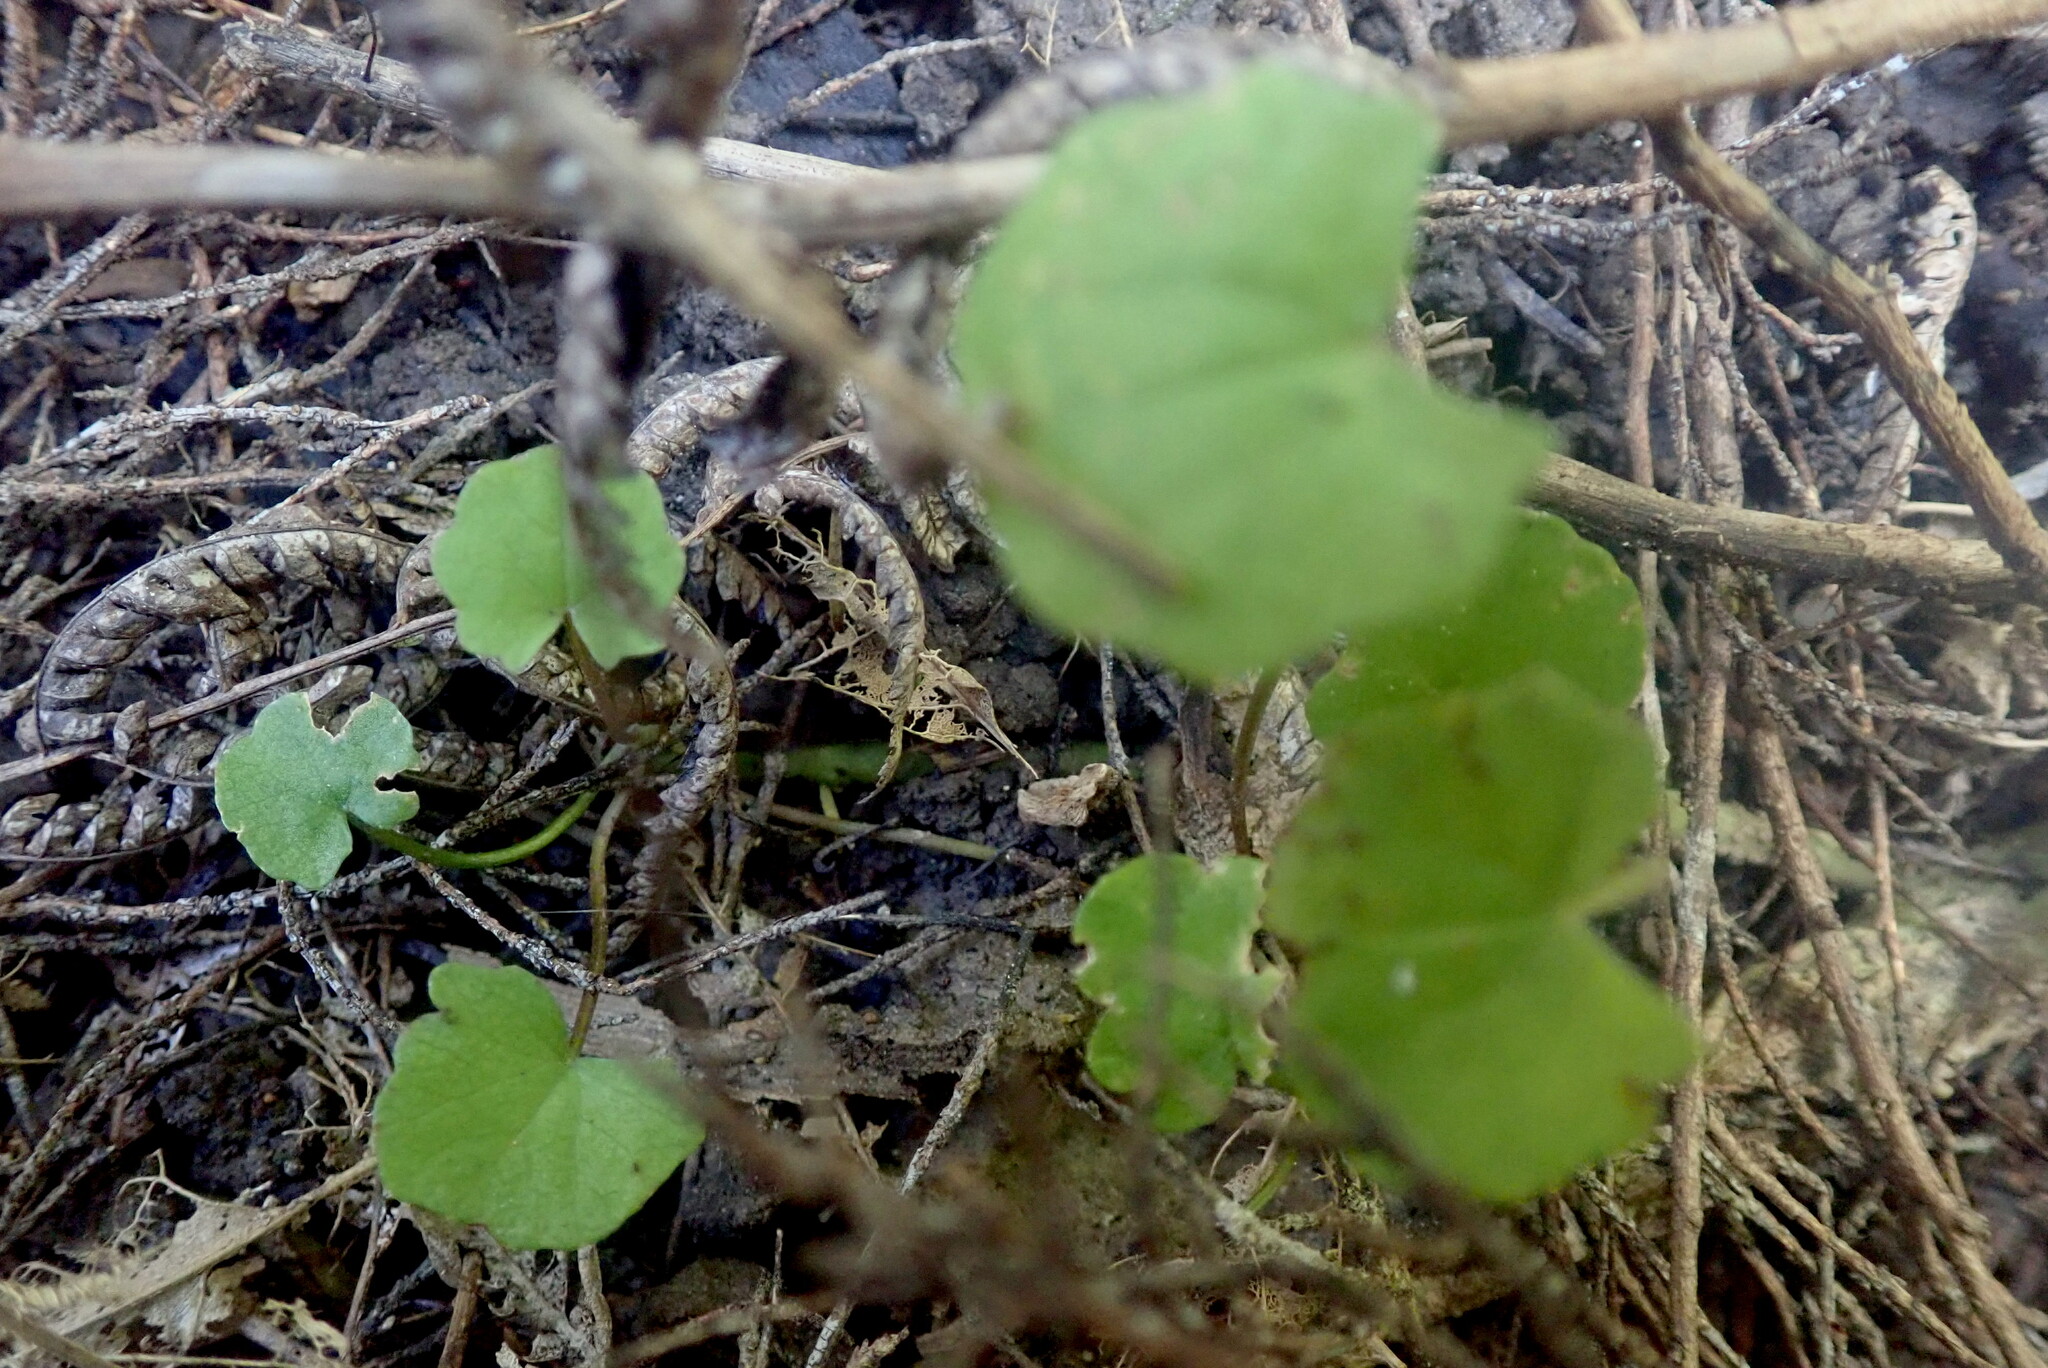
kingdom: Plantae
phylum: Tracheophyta
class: Magnoliopsida
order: Apiales
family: Apiaceae
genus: Centella
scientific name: Centella uniflora
